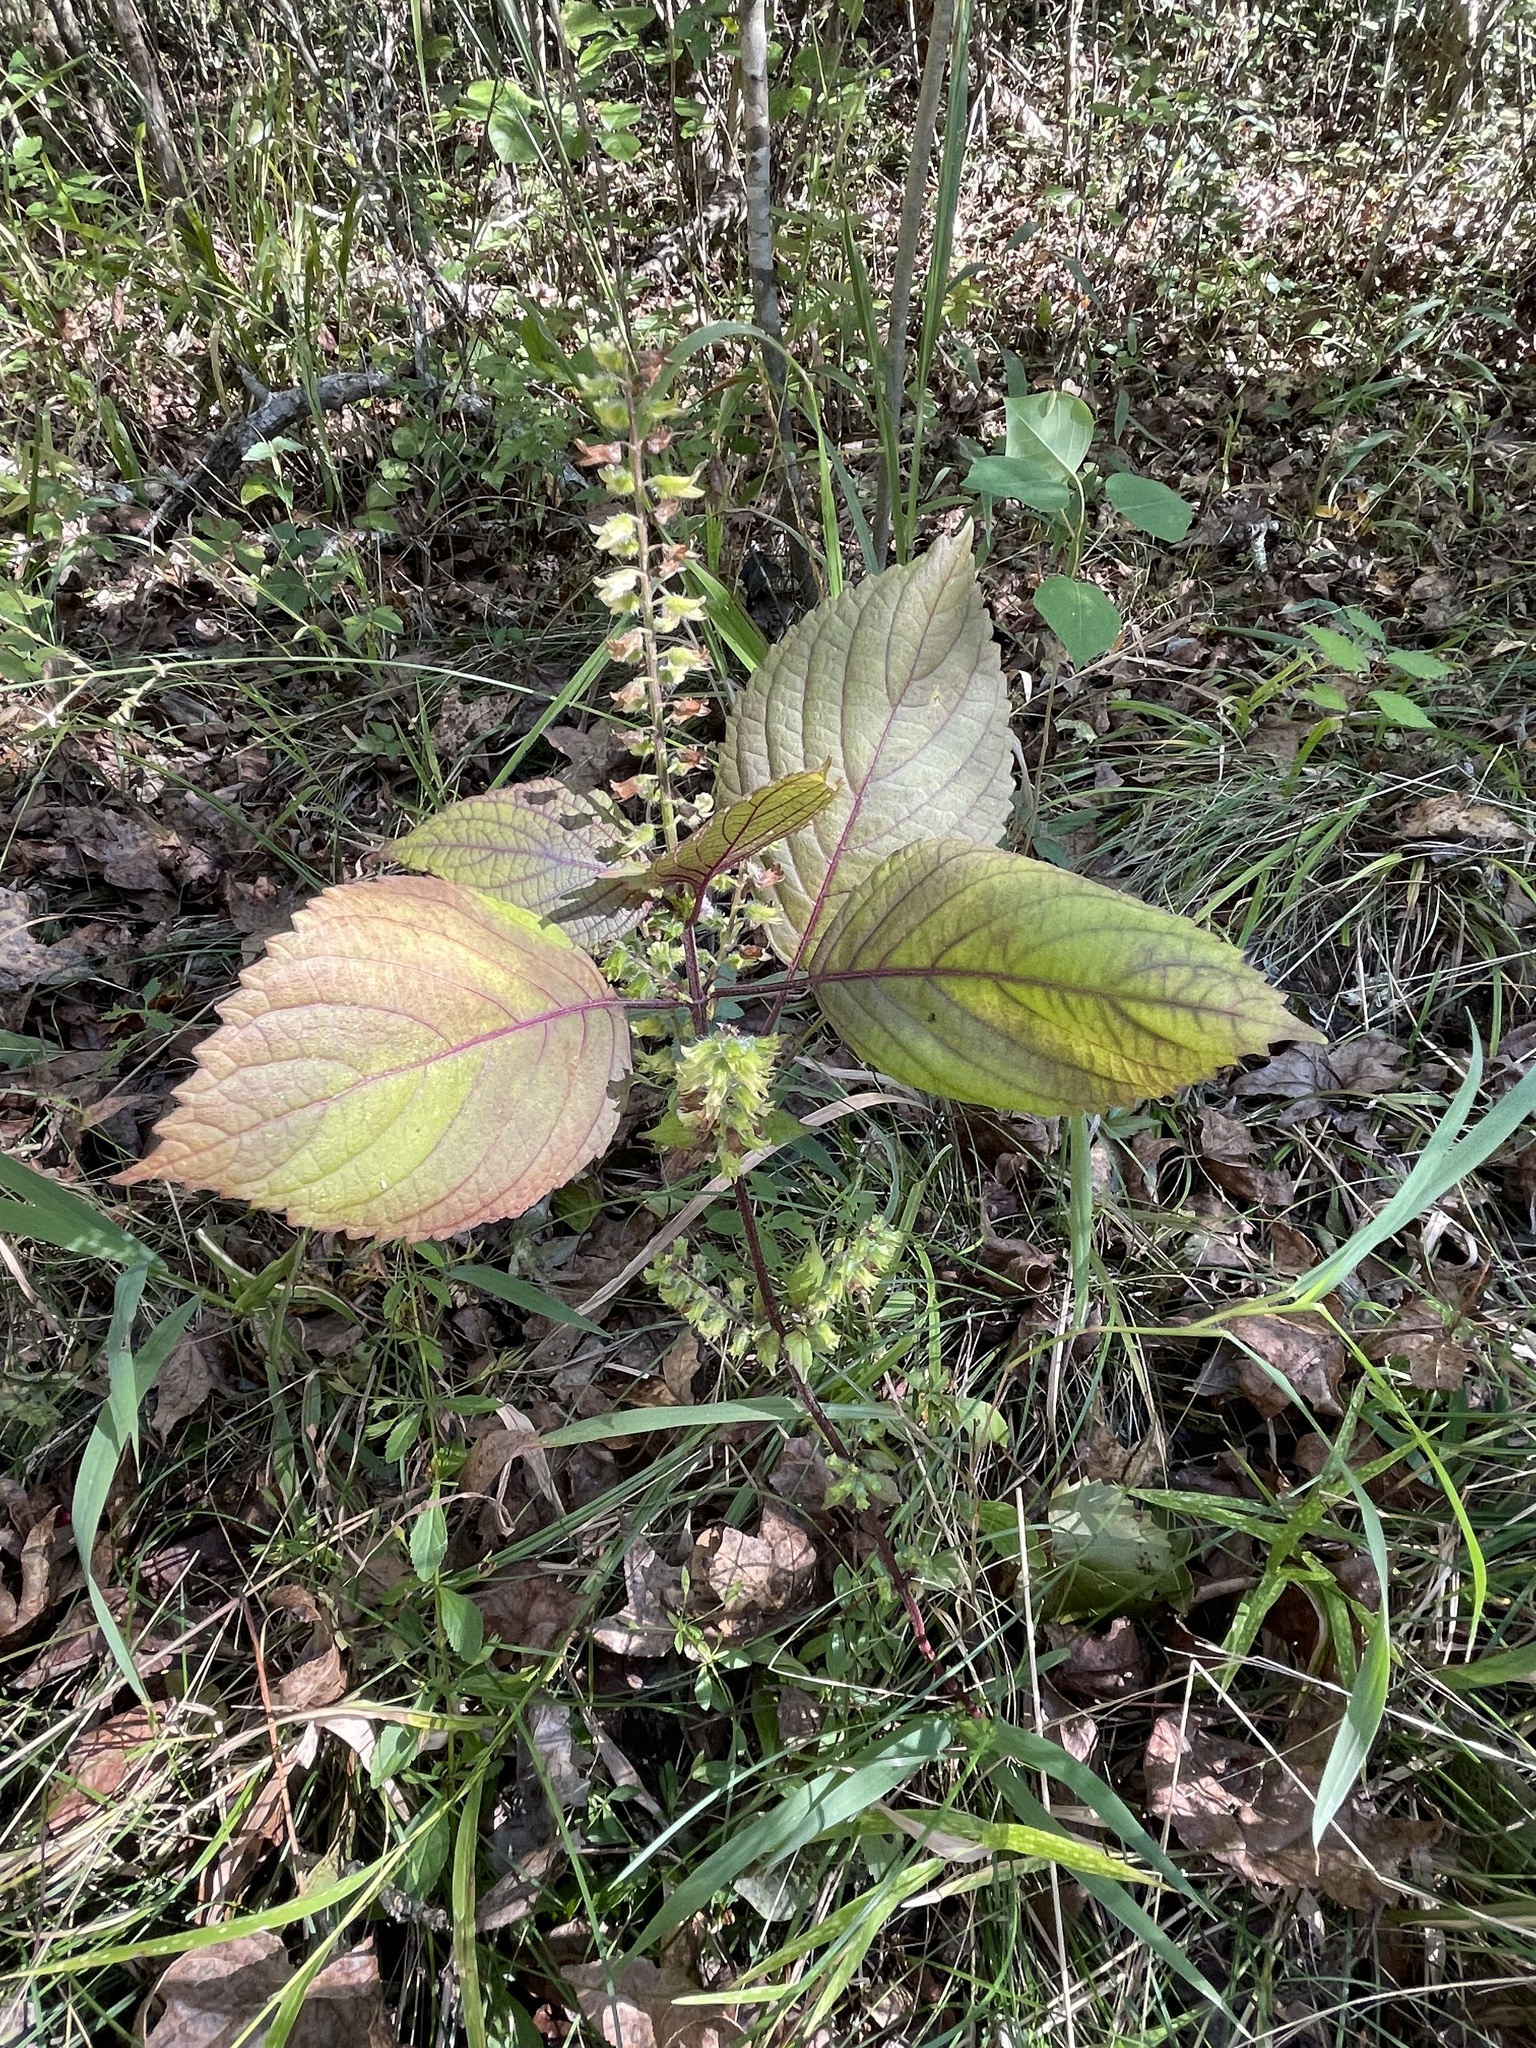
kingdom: Plantae
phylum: Tracheophyta
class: Magnoliopsida
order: Lamiales
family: Lamiaceae
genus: Perilla
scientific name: Perilla frutescens
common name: Perilla
